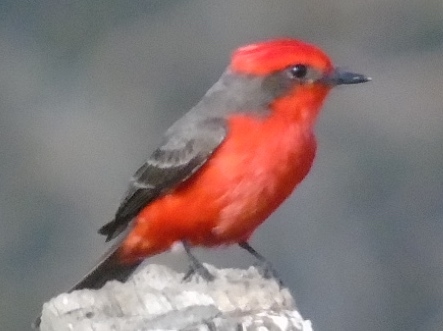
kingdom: Animalia
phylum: Chordata
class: Aves
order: Passeriformes
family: Tyrannidae
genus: Pyrocephalus
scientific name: Pyrocephalus rubinus
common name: Vermilion flycatcher
